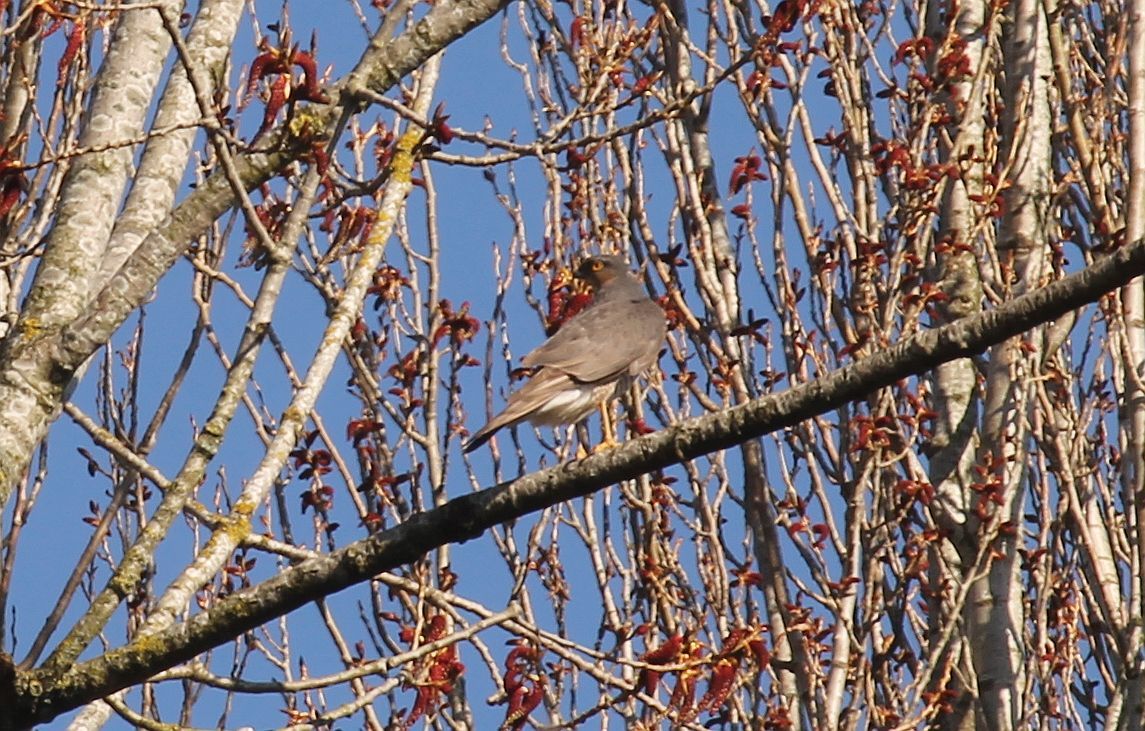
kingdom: Animalia
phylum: Chordata
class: Aves
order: Accipitriformes
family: Accipitridae
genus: Accipiter
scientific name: Accipiter nisus
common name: Eurasian sparrowhawk
